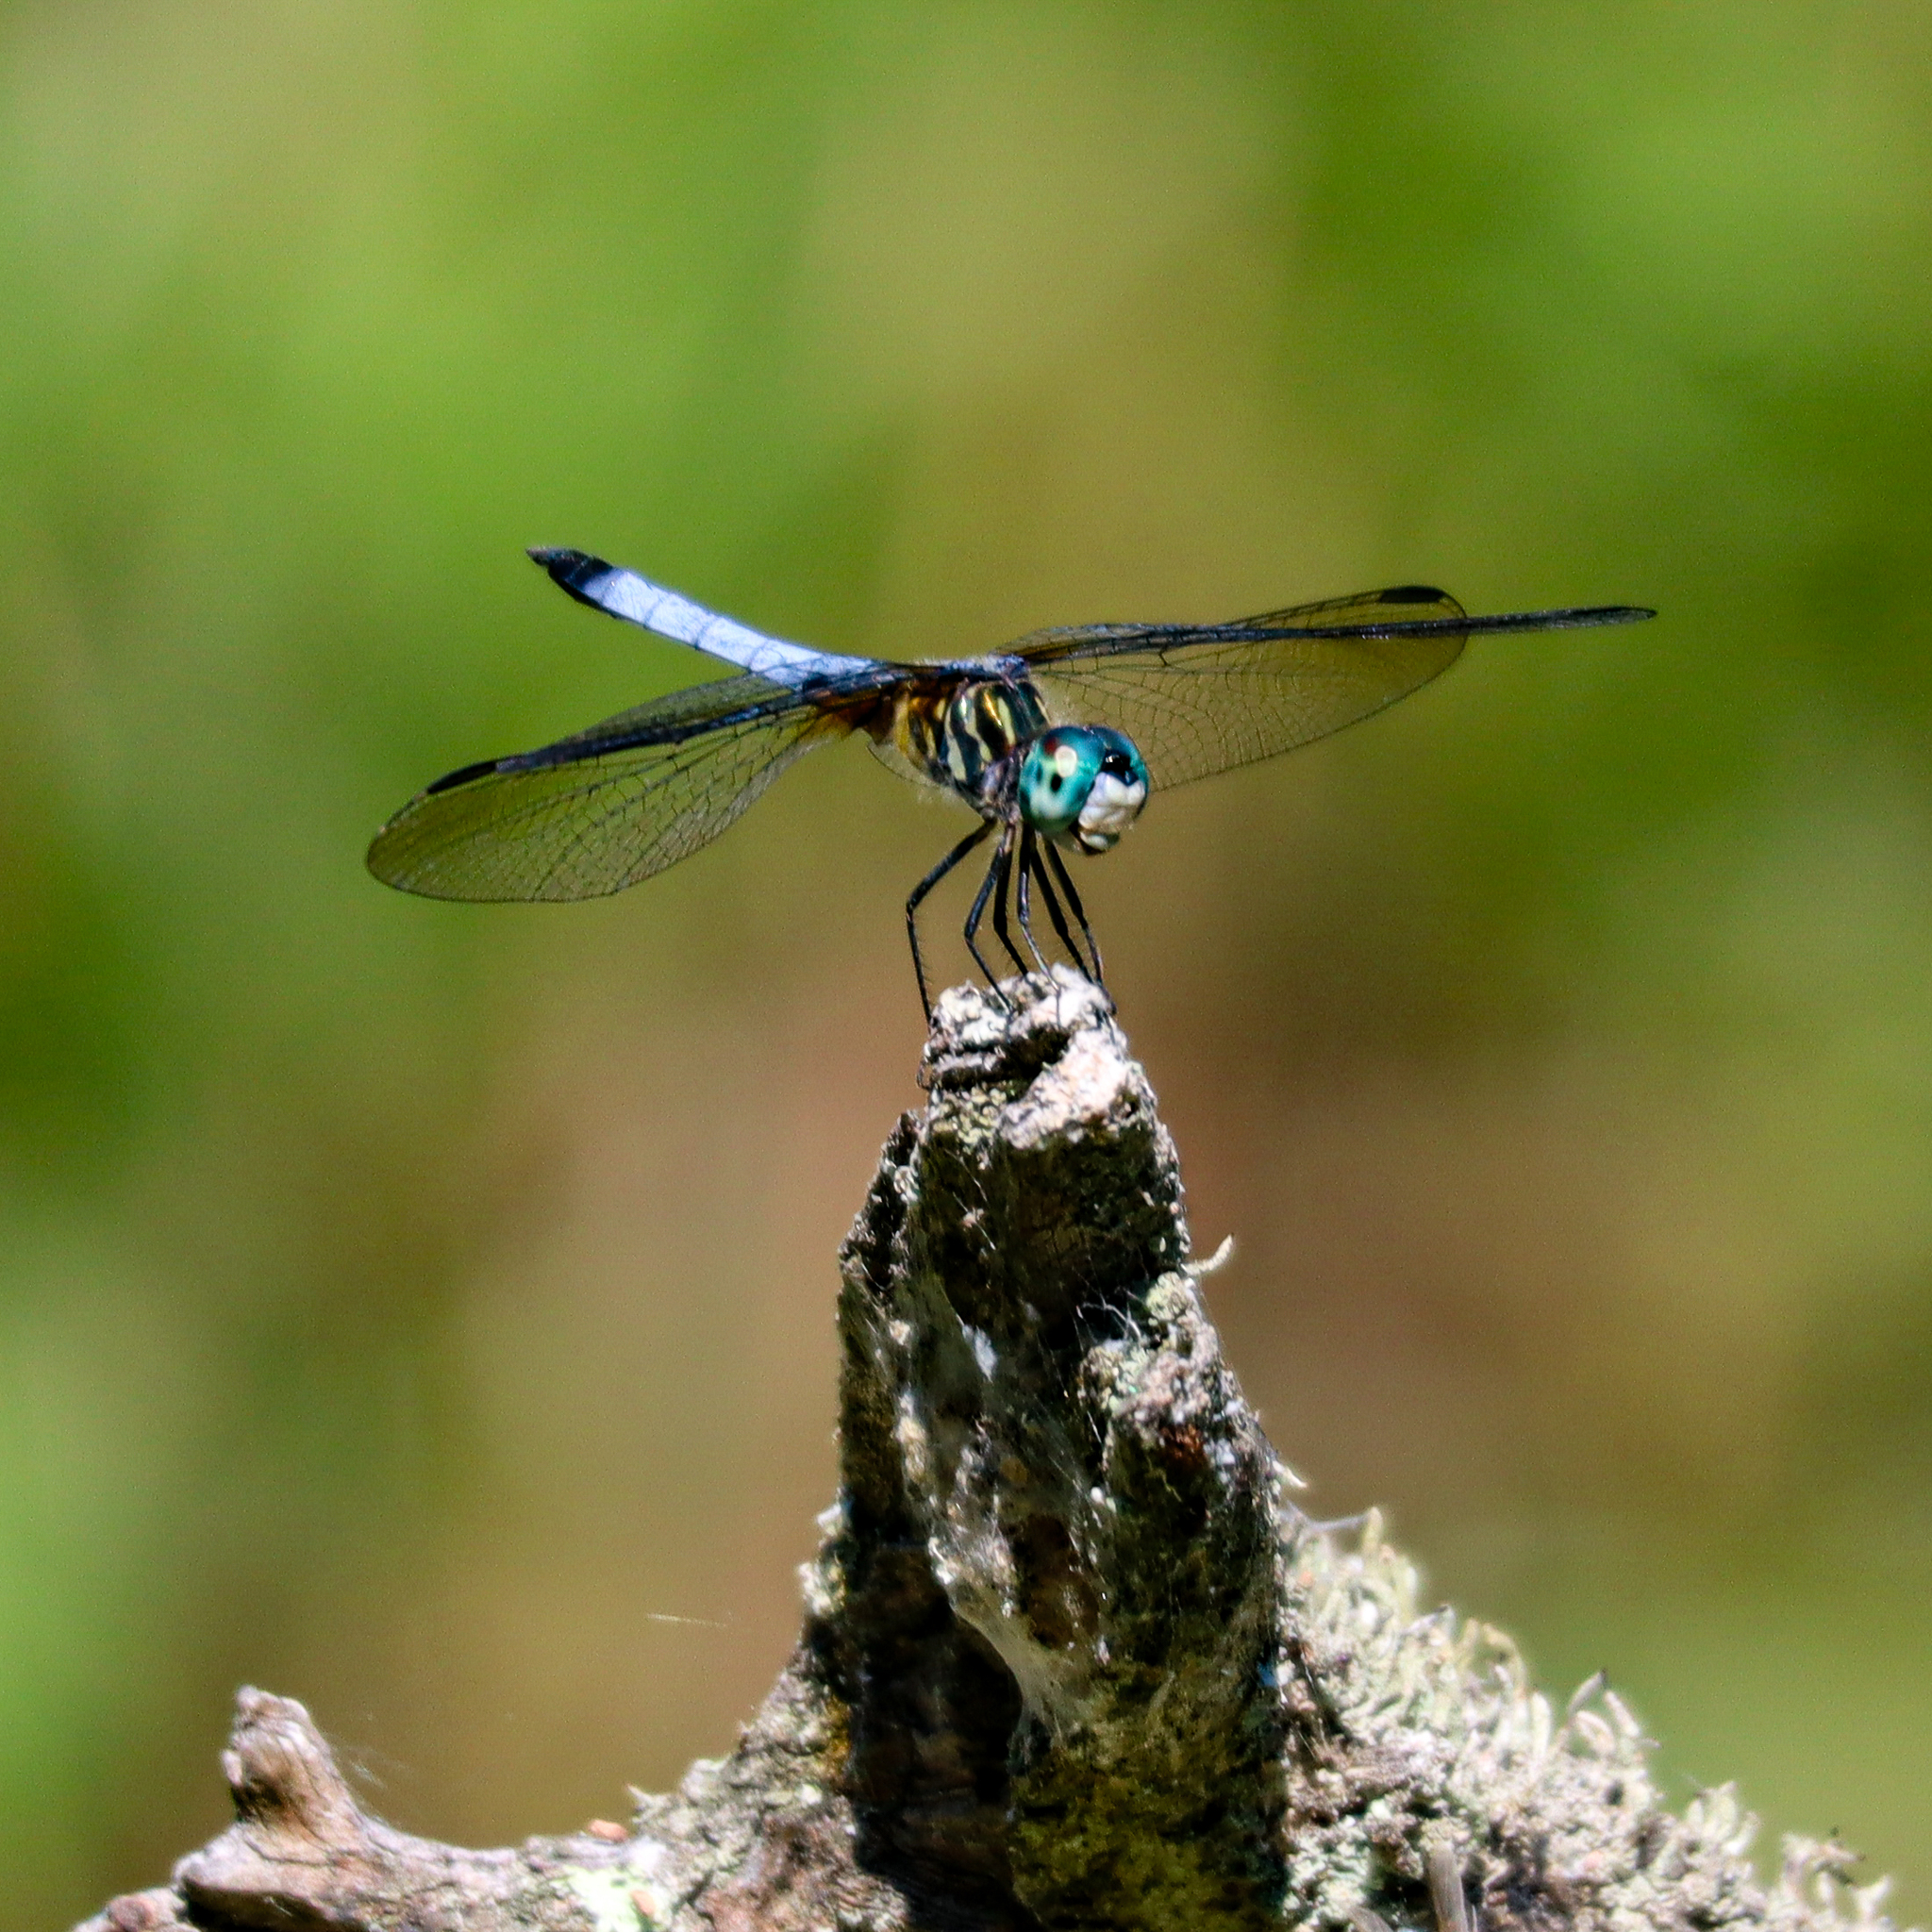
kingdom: Animalia
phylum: Arthropoda
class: Insecta
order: Odonata
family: Libellulidae
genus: Pachydiplax
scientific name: Pachydiplax longipennis
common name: Blue dasher
